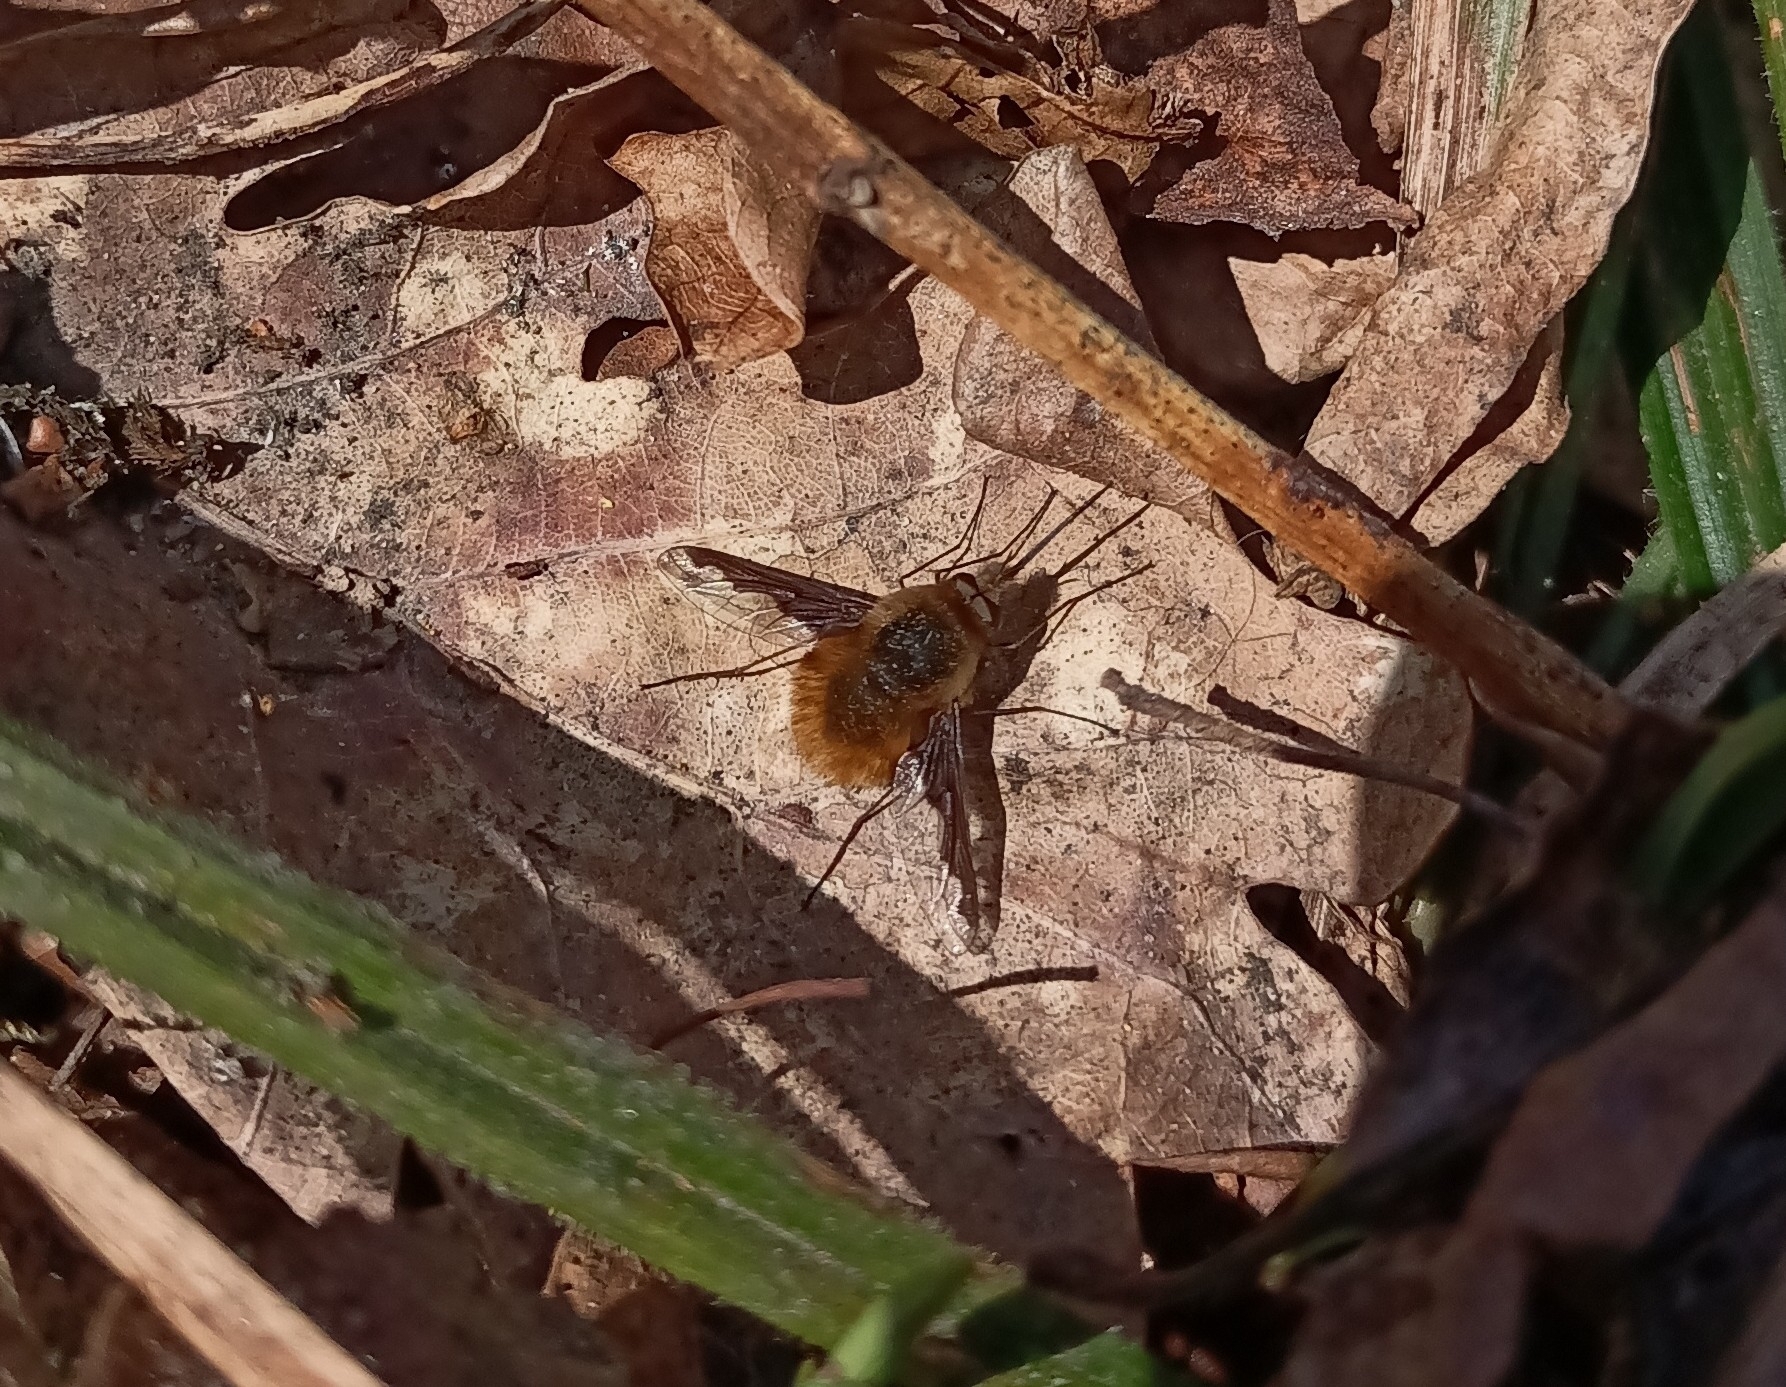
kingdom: Animalia
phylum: Arthropoda
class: Insecta
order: Diptera
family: Bombyliidae
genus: Bombylius
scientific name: Bombylius major
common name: Bee fly
